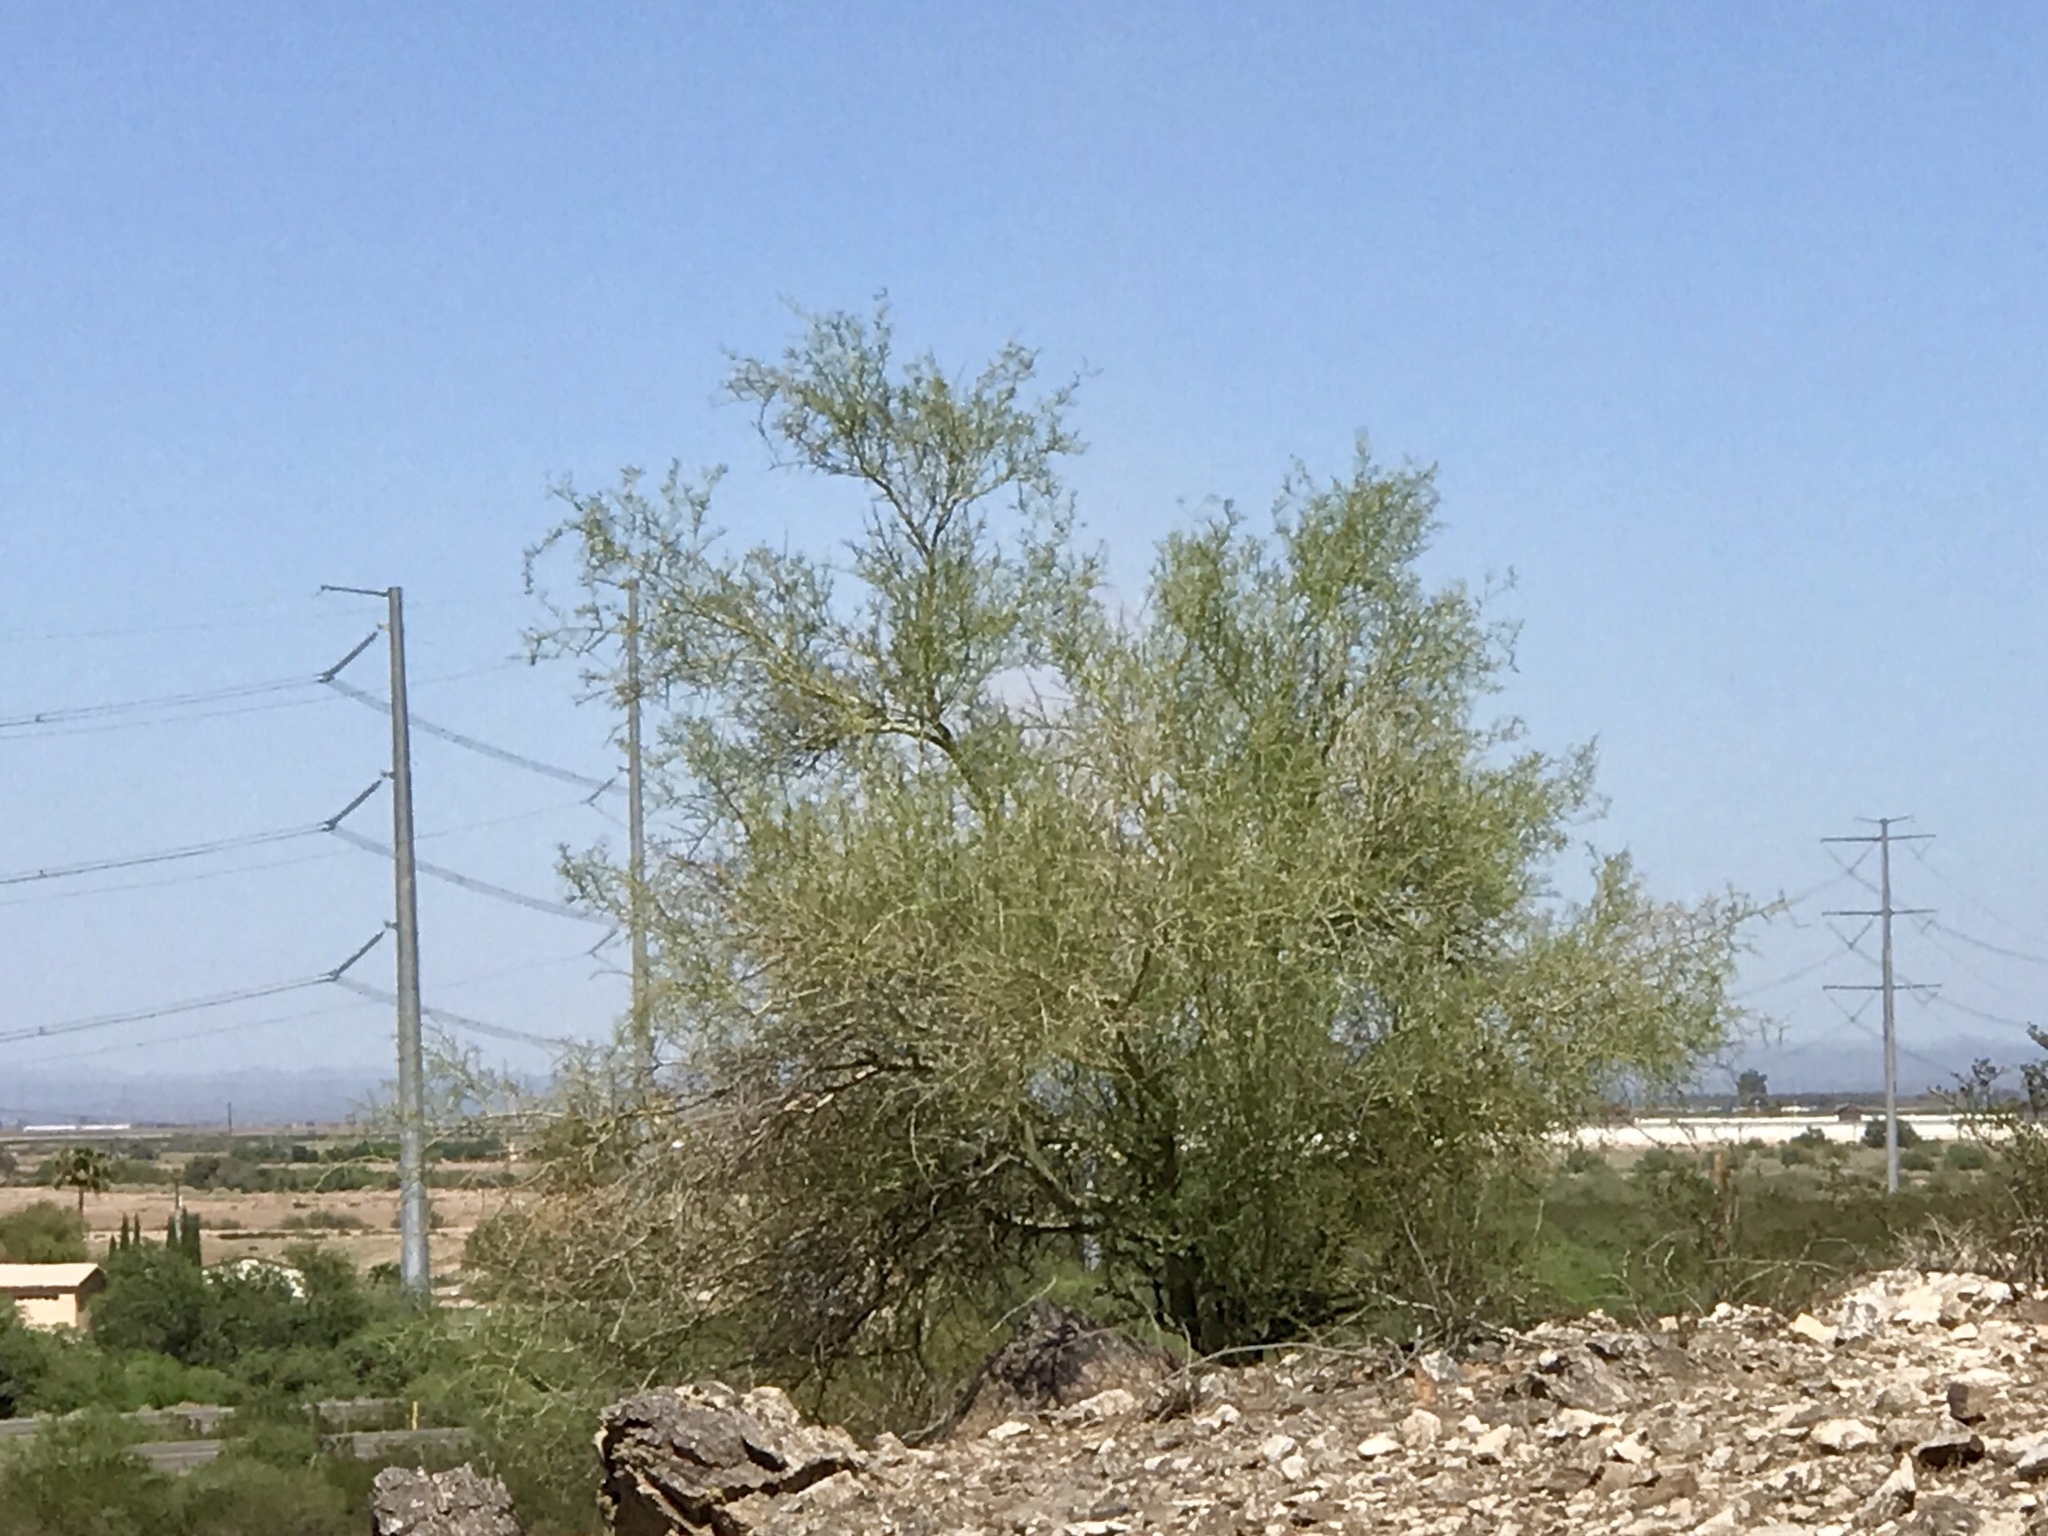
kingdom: Plantae
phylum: Tracheophyta
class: Magnoliopsida
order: Fabales
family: Fabaceae
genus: Parkinsonia
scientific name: Parkinsonia florida
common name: Blue paloverde
